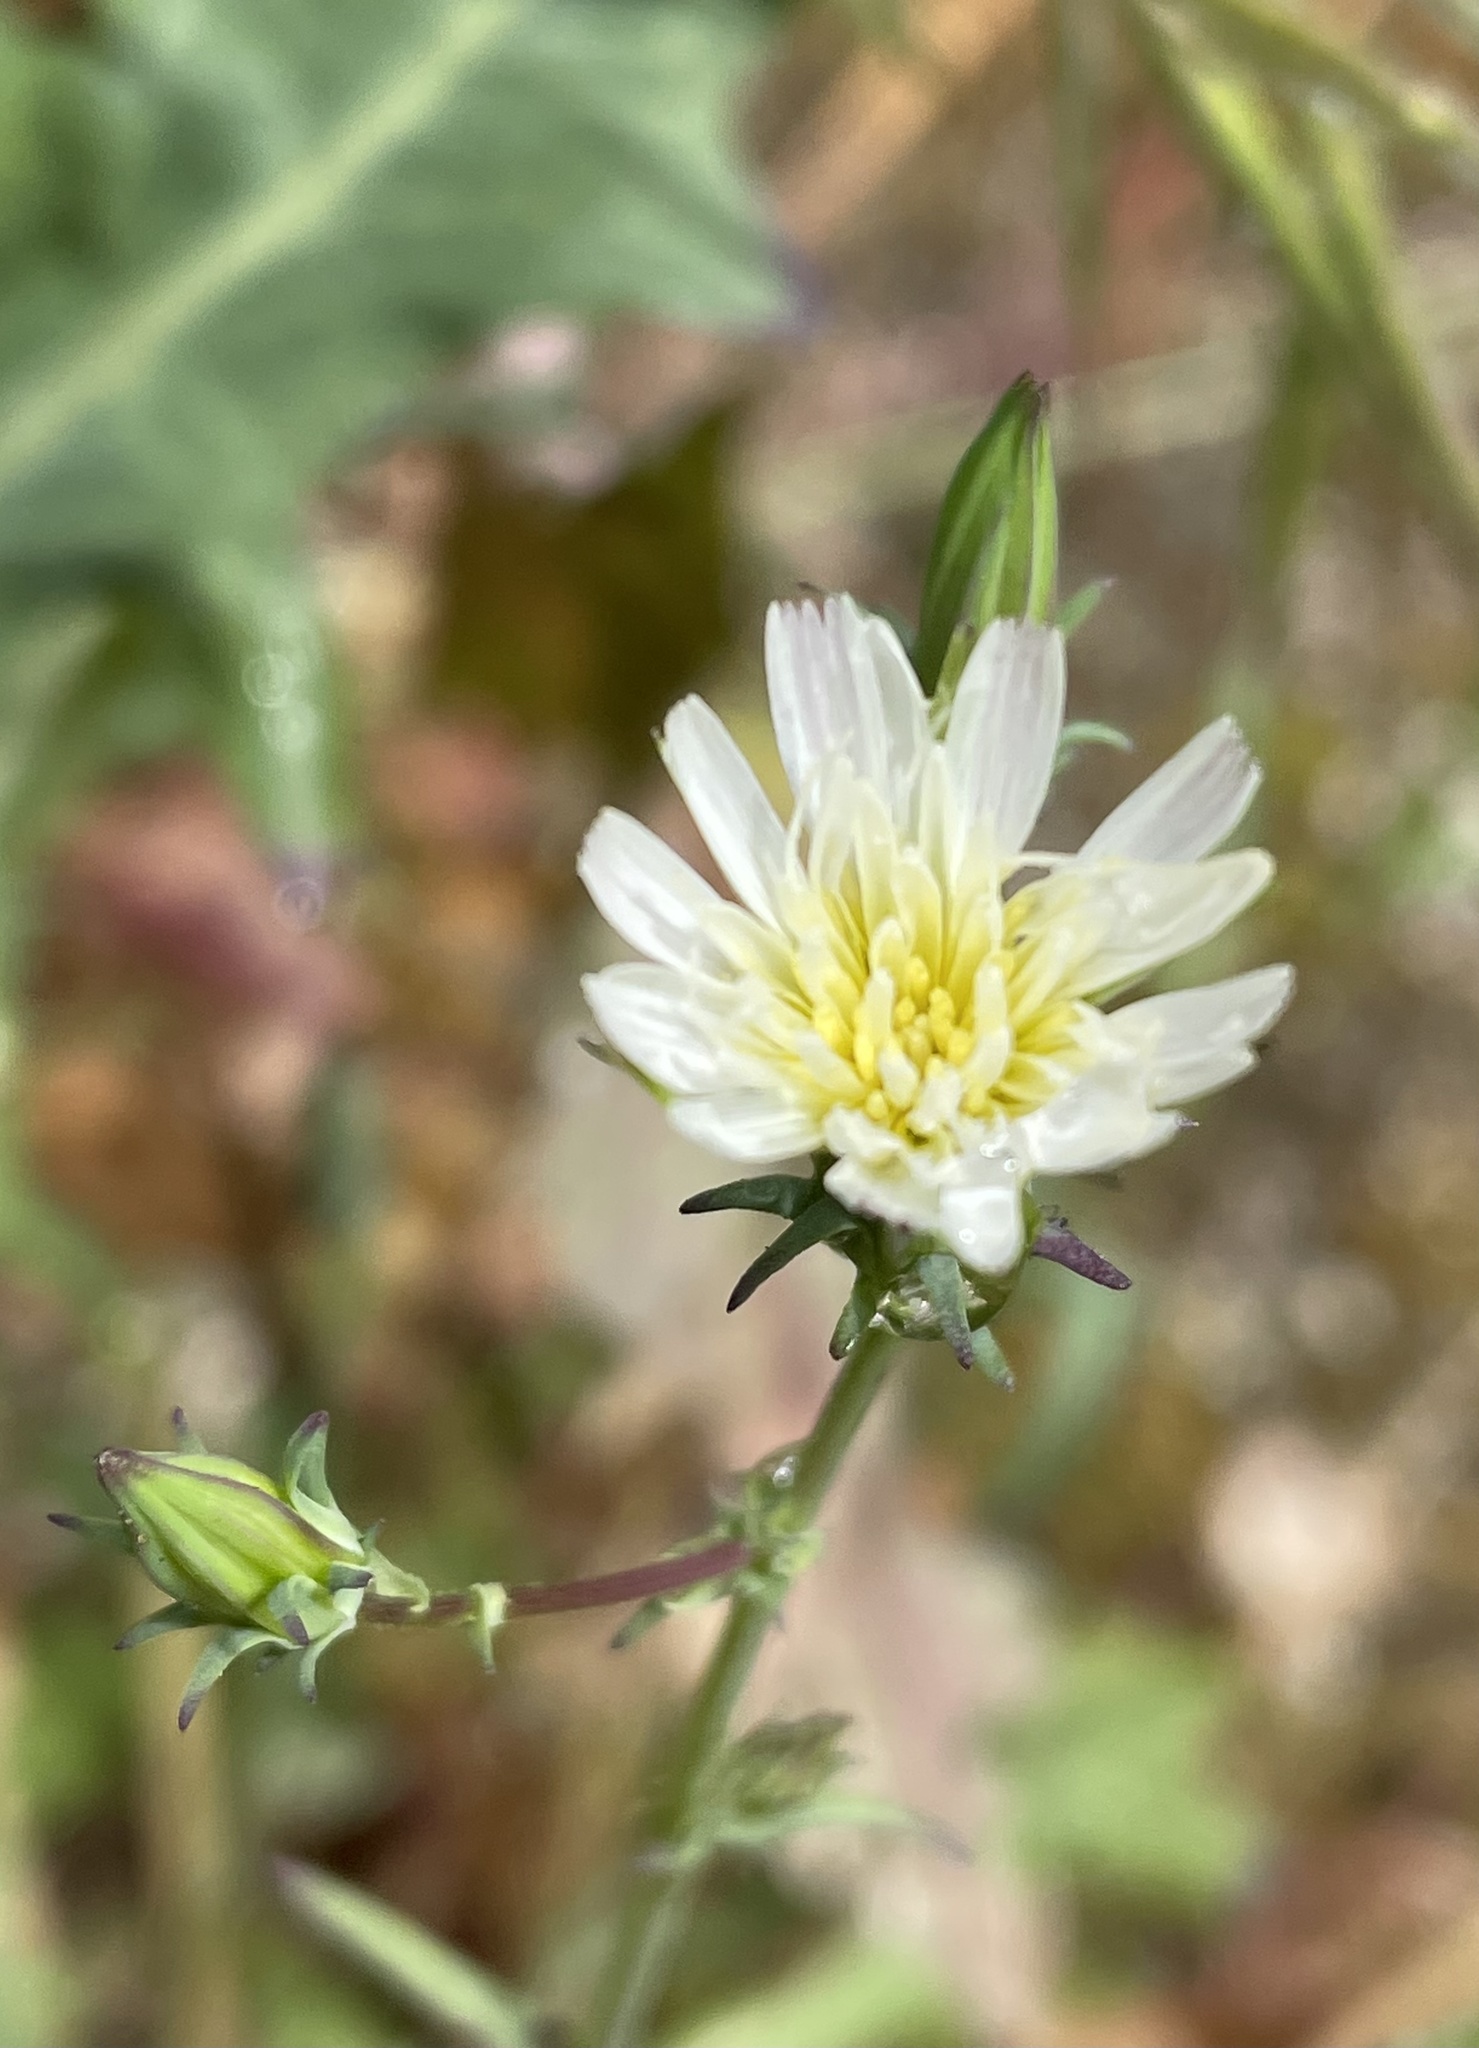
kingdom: Plantae
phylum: Tracheophyta
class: Magnoliopsida
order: Asterales
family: Asteraceae
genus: Rafinesquia
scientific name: Rafinesquia californica
